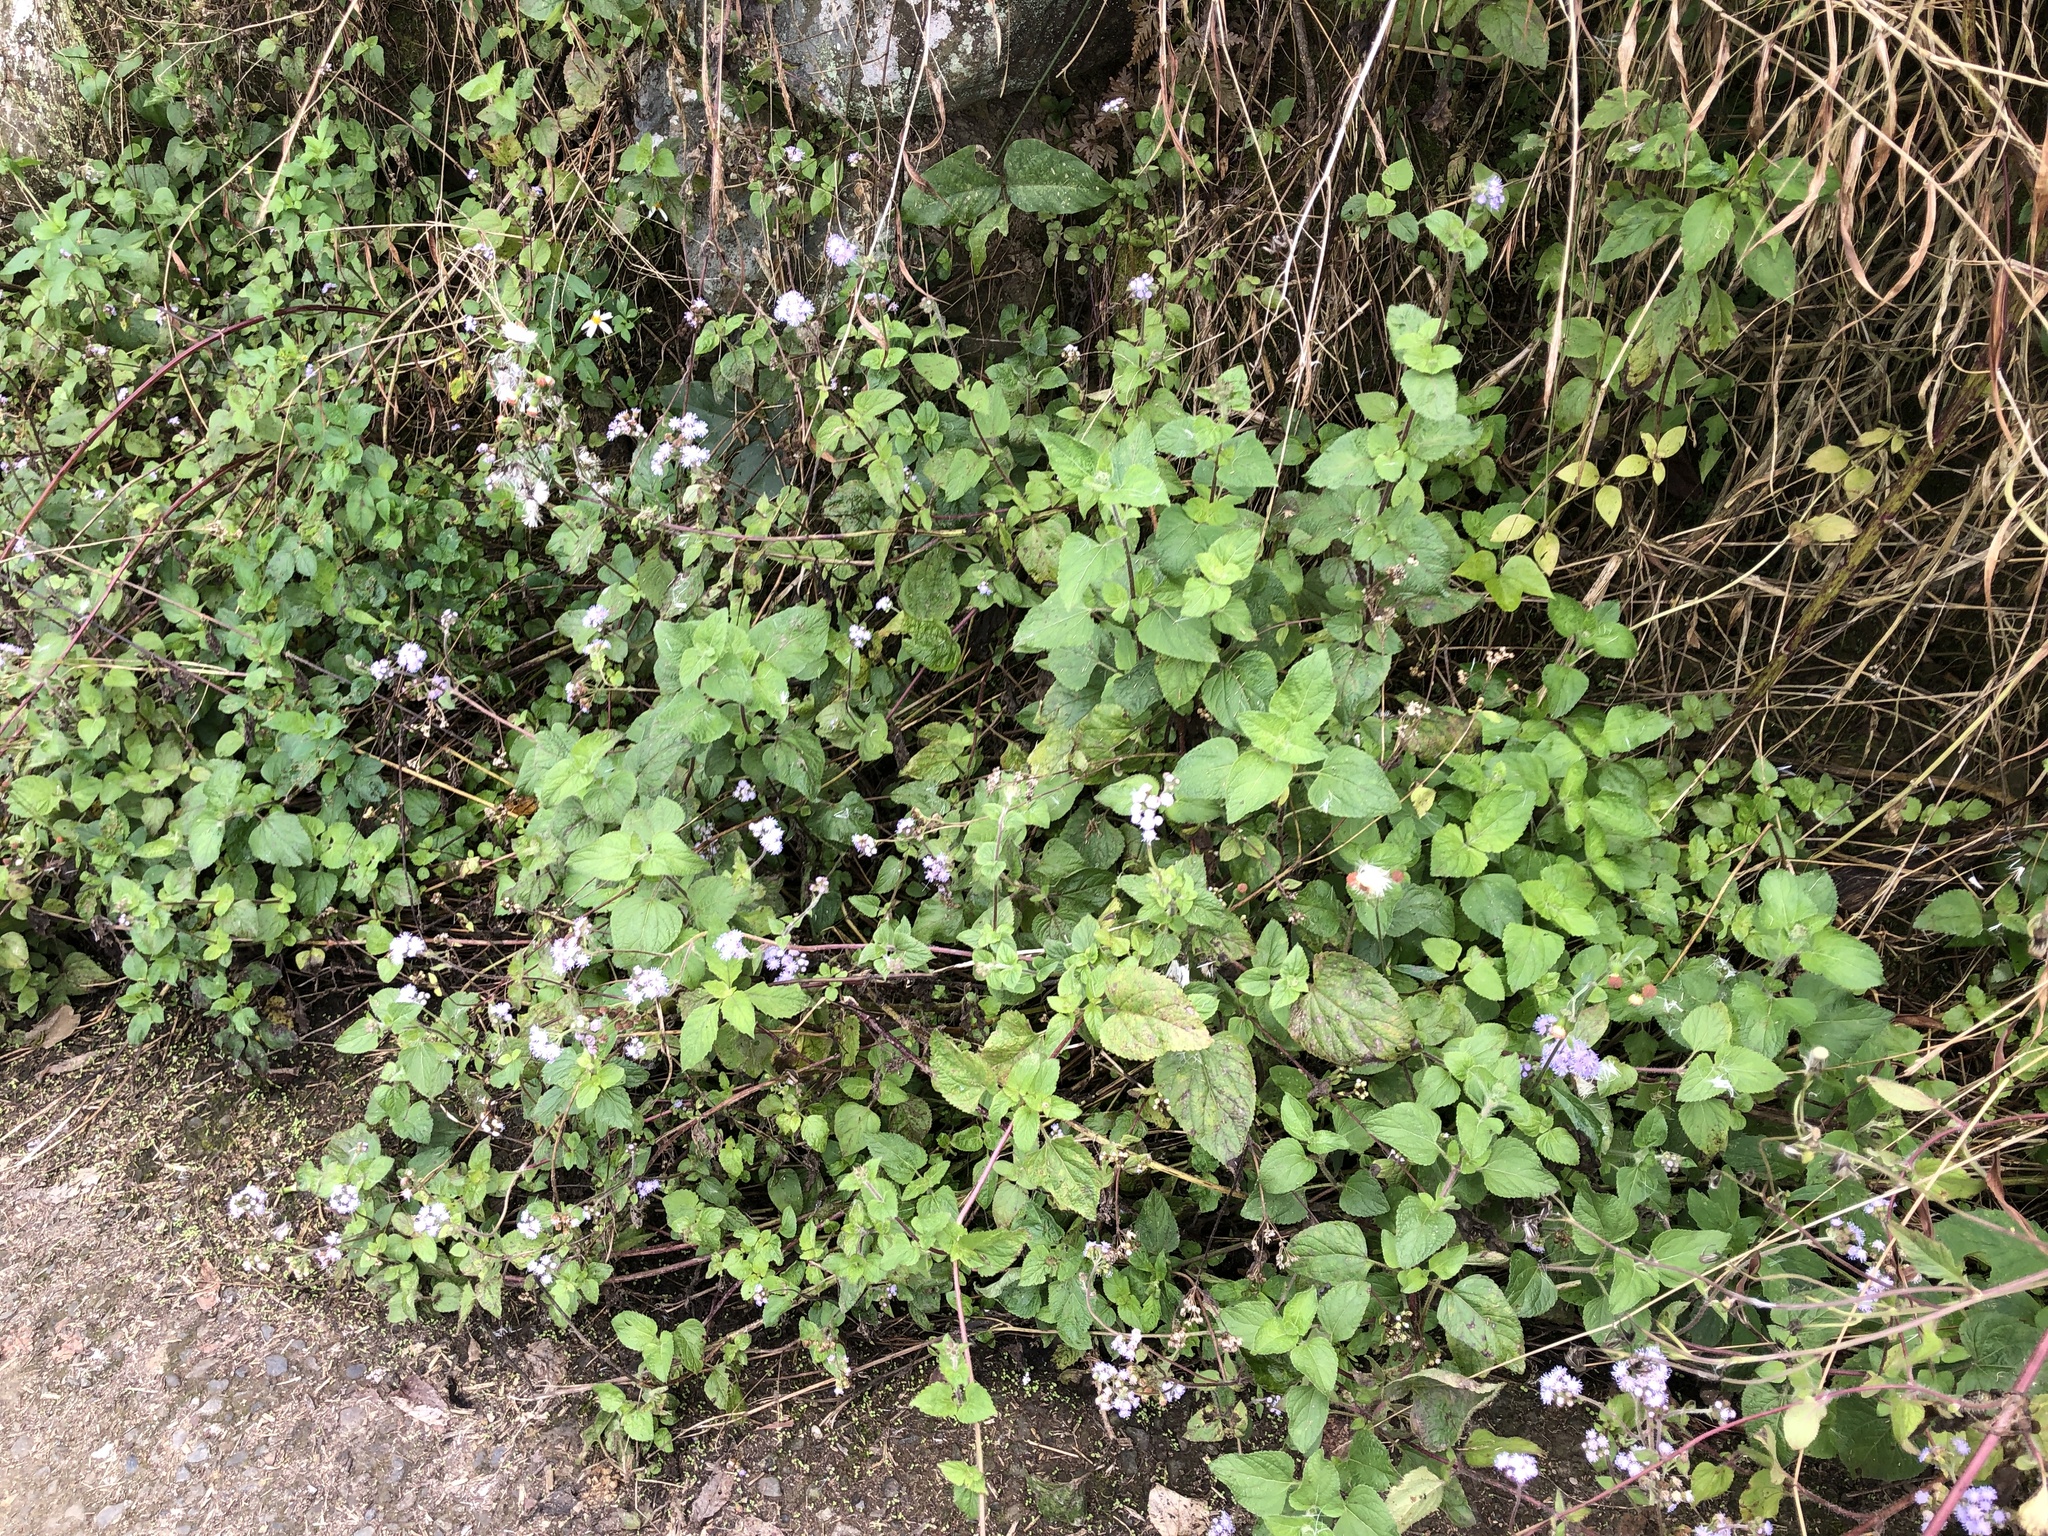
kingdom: Plantae
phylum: Tracheophyta
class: Magnoliopsida
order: Asterales
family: Asteraceae
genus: Ageratum
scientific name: Ageratum houstonianum
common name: Bluemink
